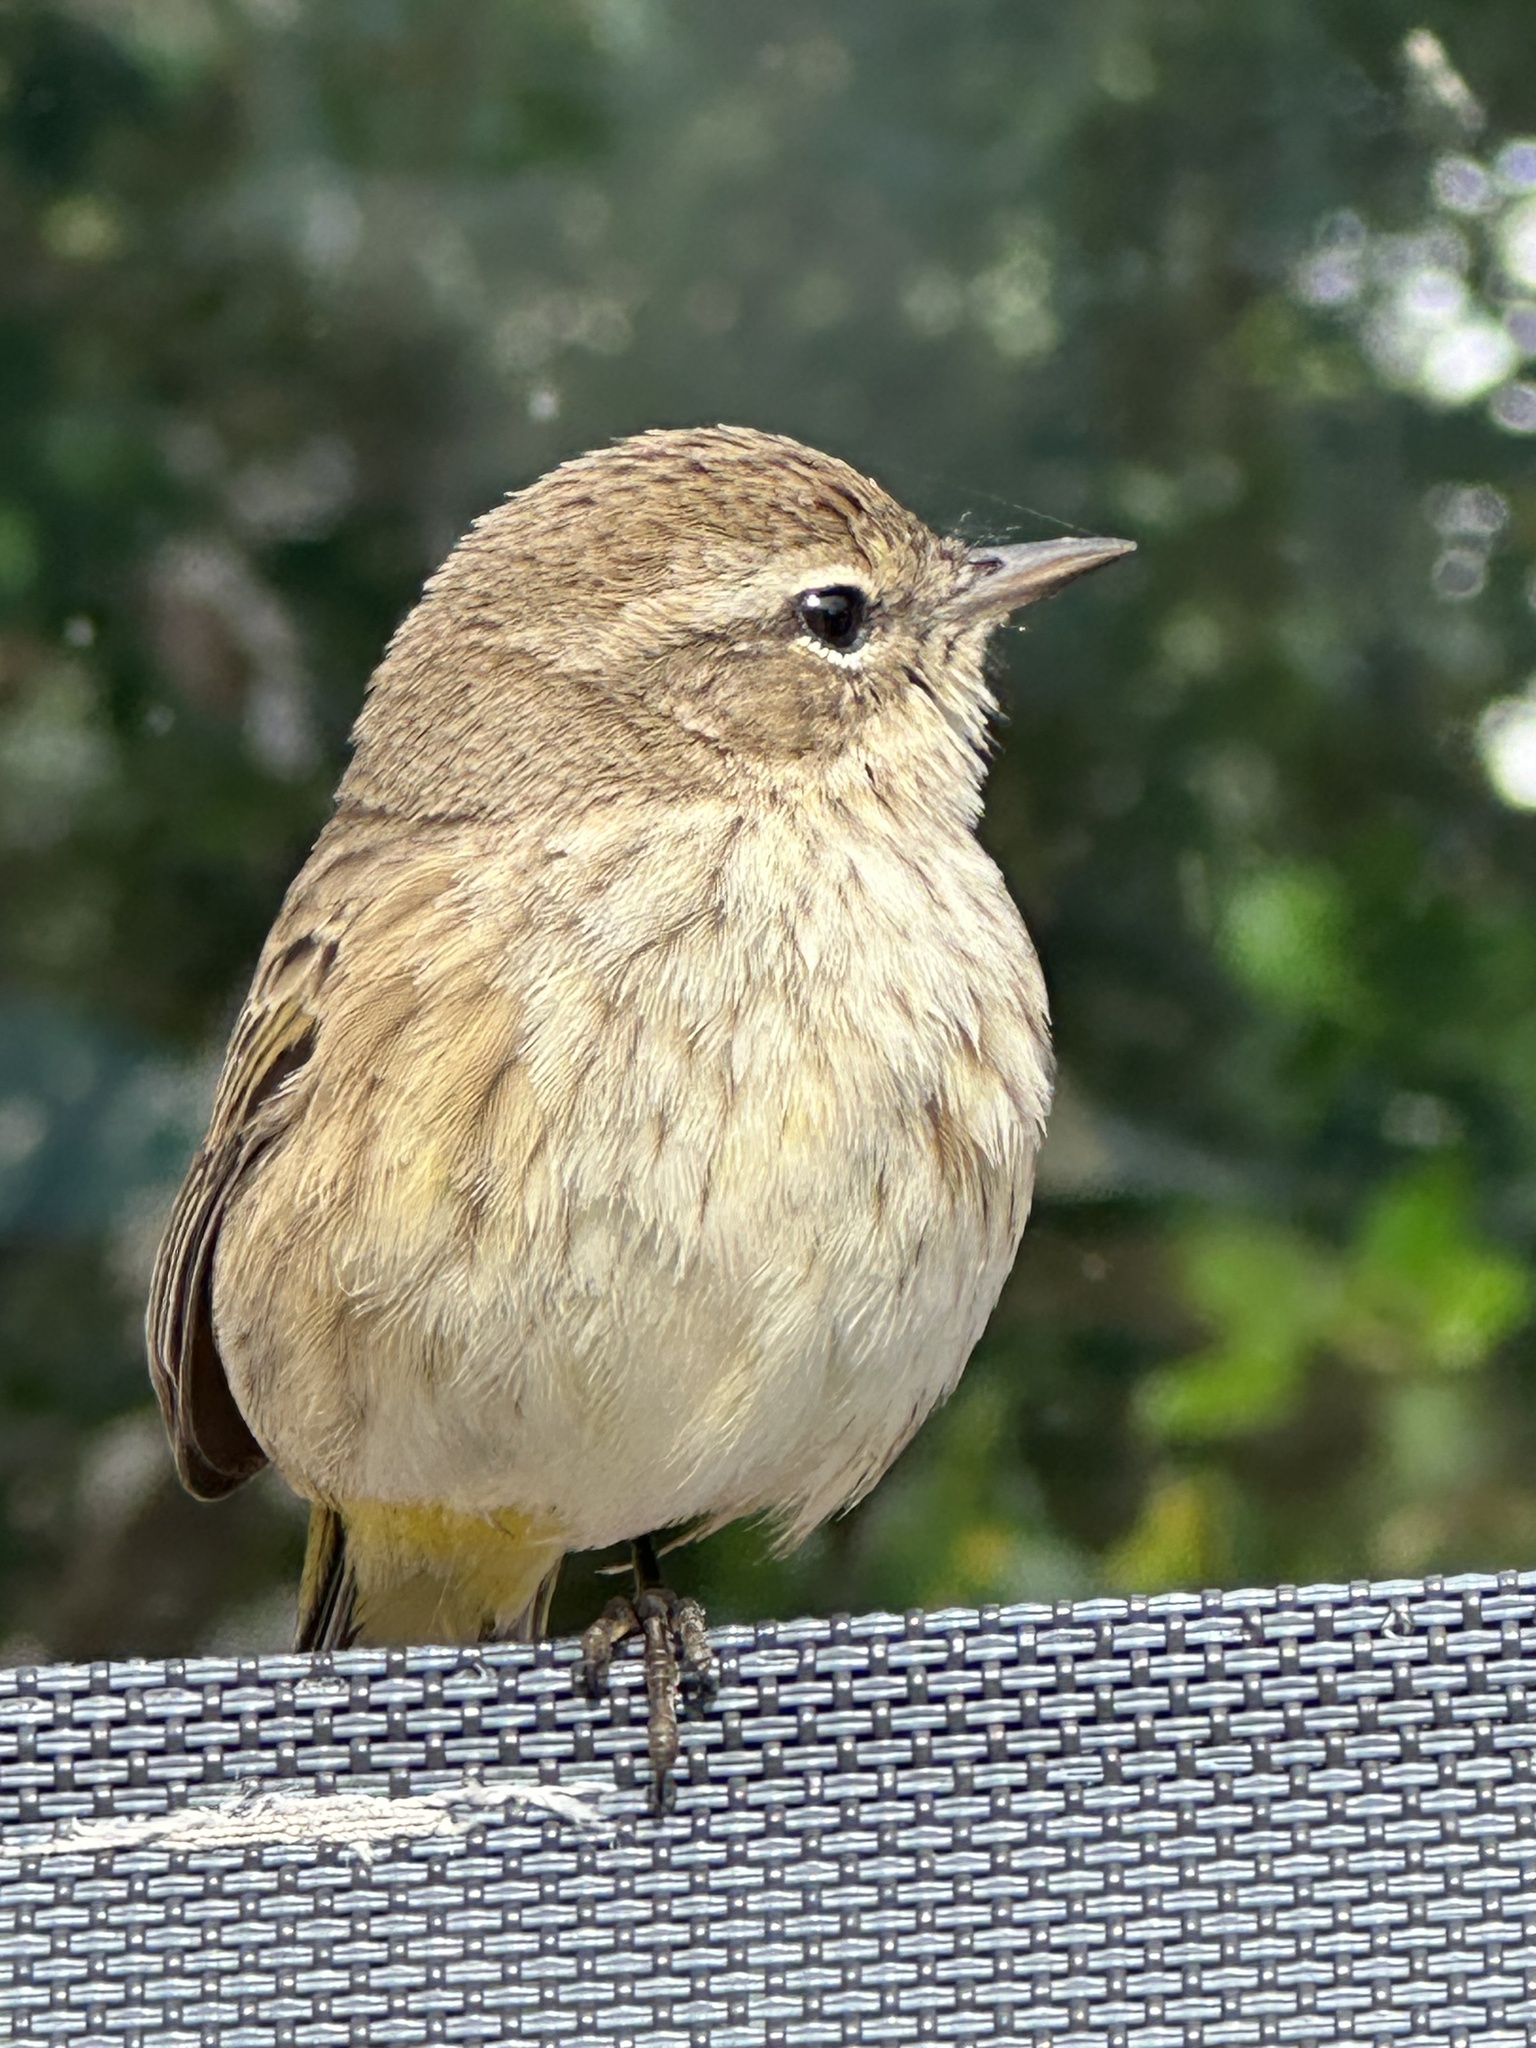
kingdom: Animalia
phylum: Chordata
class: Aves
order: Passeriformes
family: Parulidae
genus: Setophaga
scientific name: Setophaga palmarum
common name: Palm warbler
